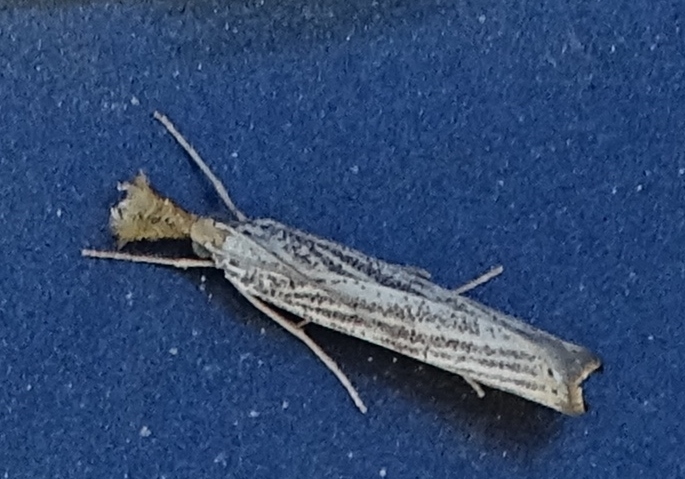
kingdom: Animalia
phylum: Arthropoda
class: Insecta
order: Lepidoptera
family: Crambidae
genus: Agriphila
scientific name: Agriphila vulgivagellus
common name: Vagabond crambus moth
